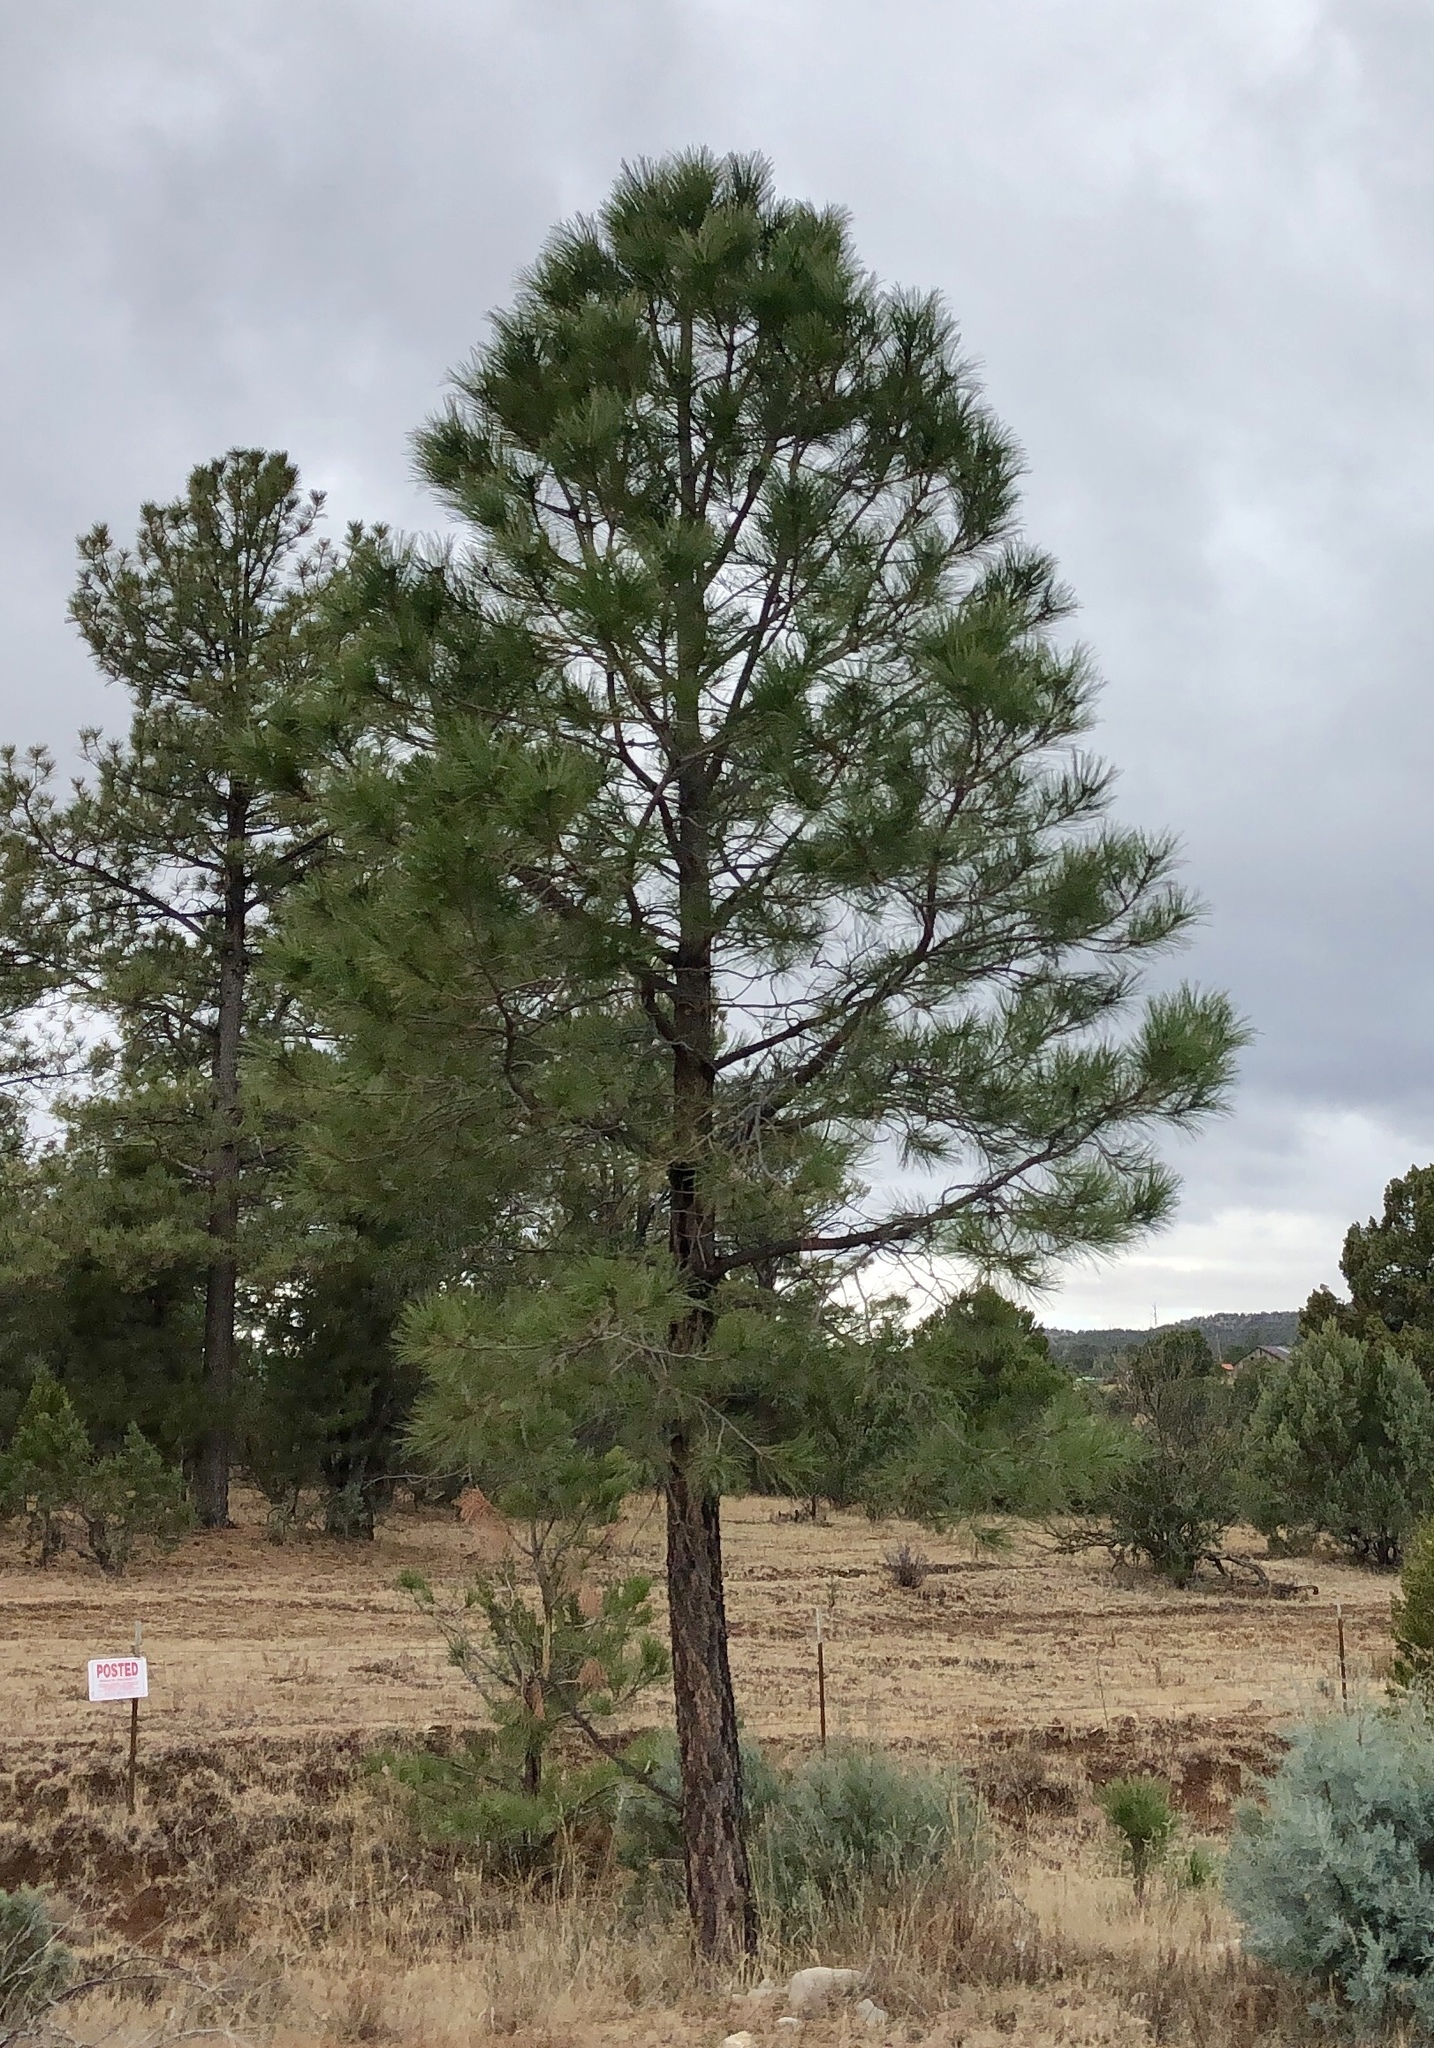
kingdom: Plantae
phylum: Tracheophyta
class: Pinopsida
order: Pinales
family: Pinaceae
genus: Pinus
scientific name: Pinus ponderosa
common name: Western yellow-pine
